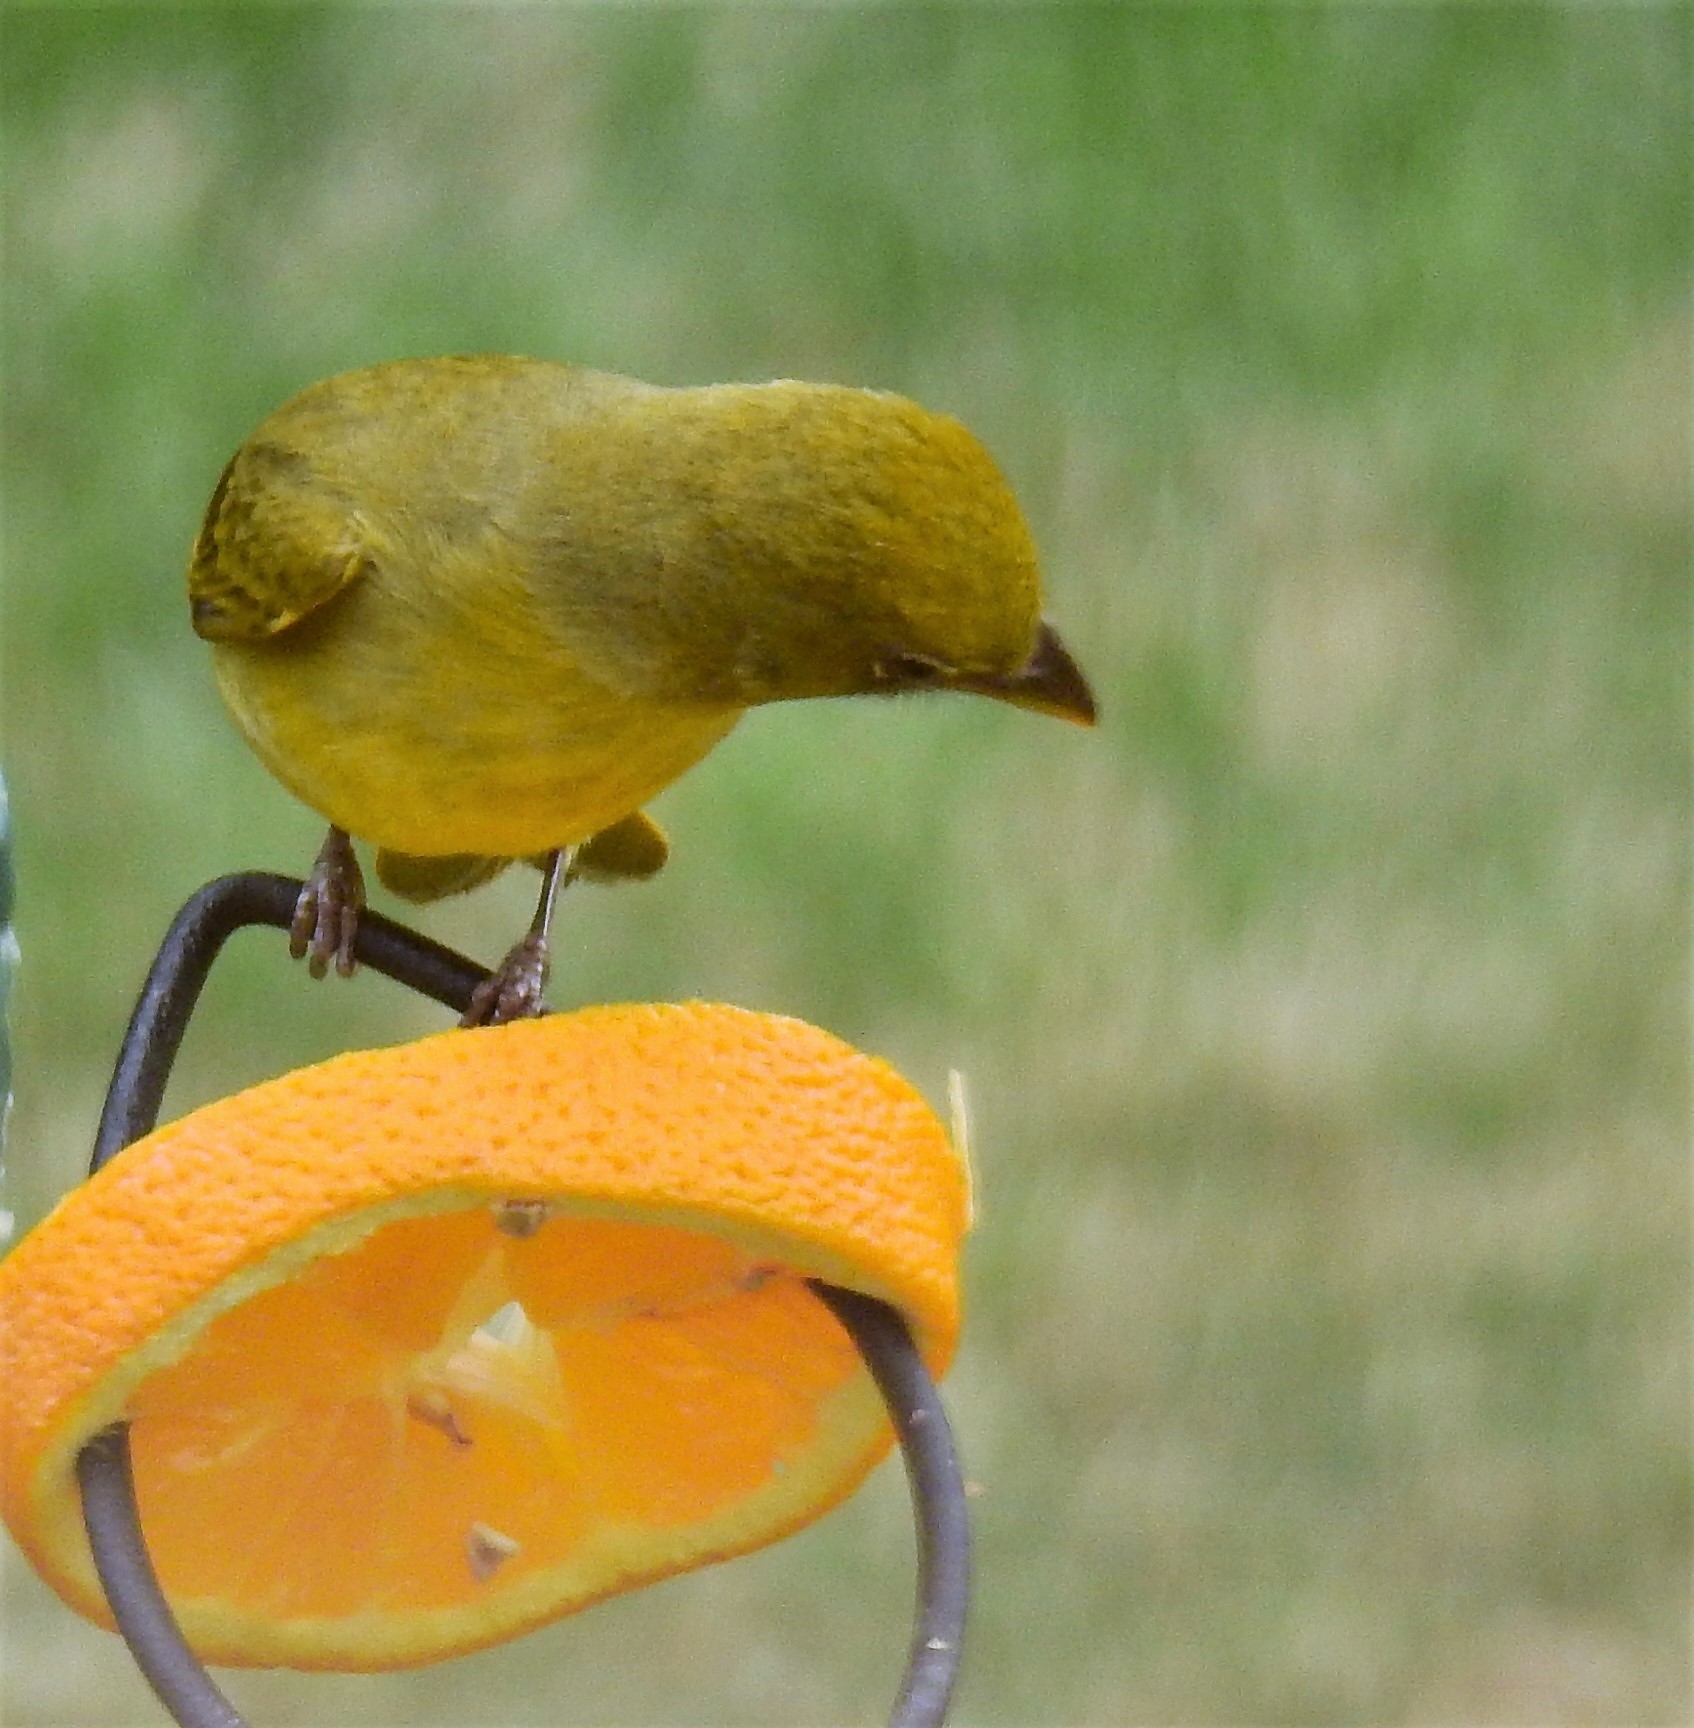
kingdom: Animalia
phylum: Chordata
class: Aves
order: Passeriformes
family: Cardinalidae
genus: Piranga
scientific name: Piranga rubra
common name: Summer tanager
